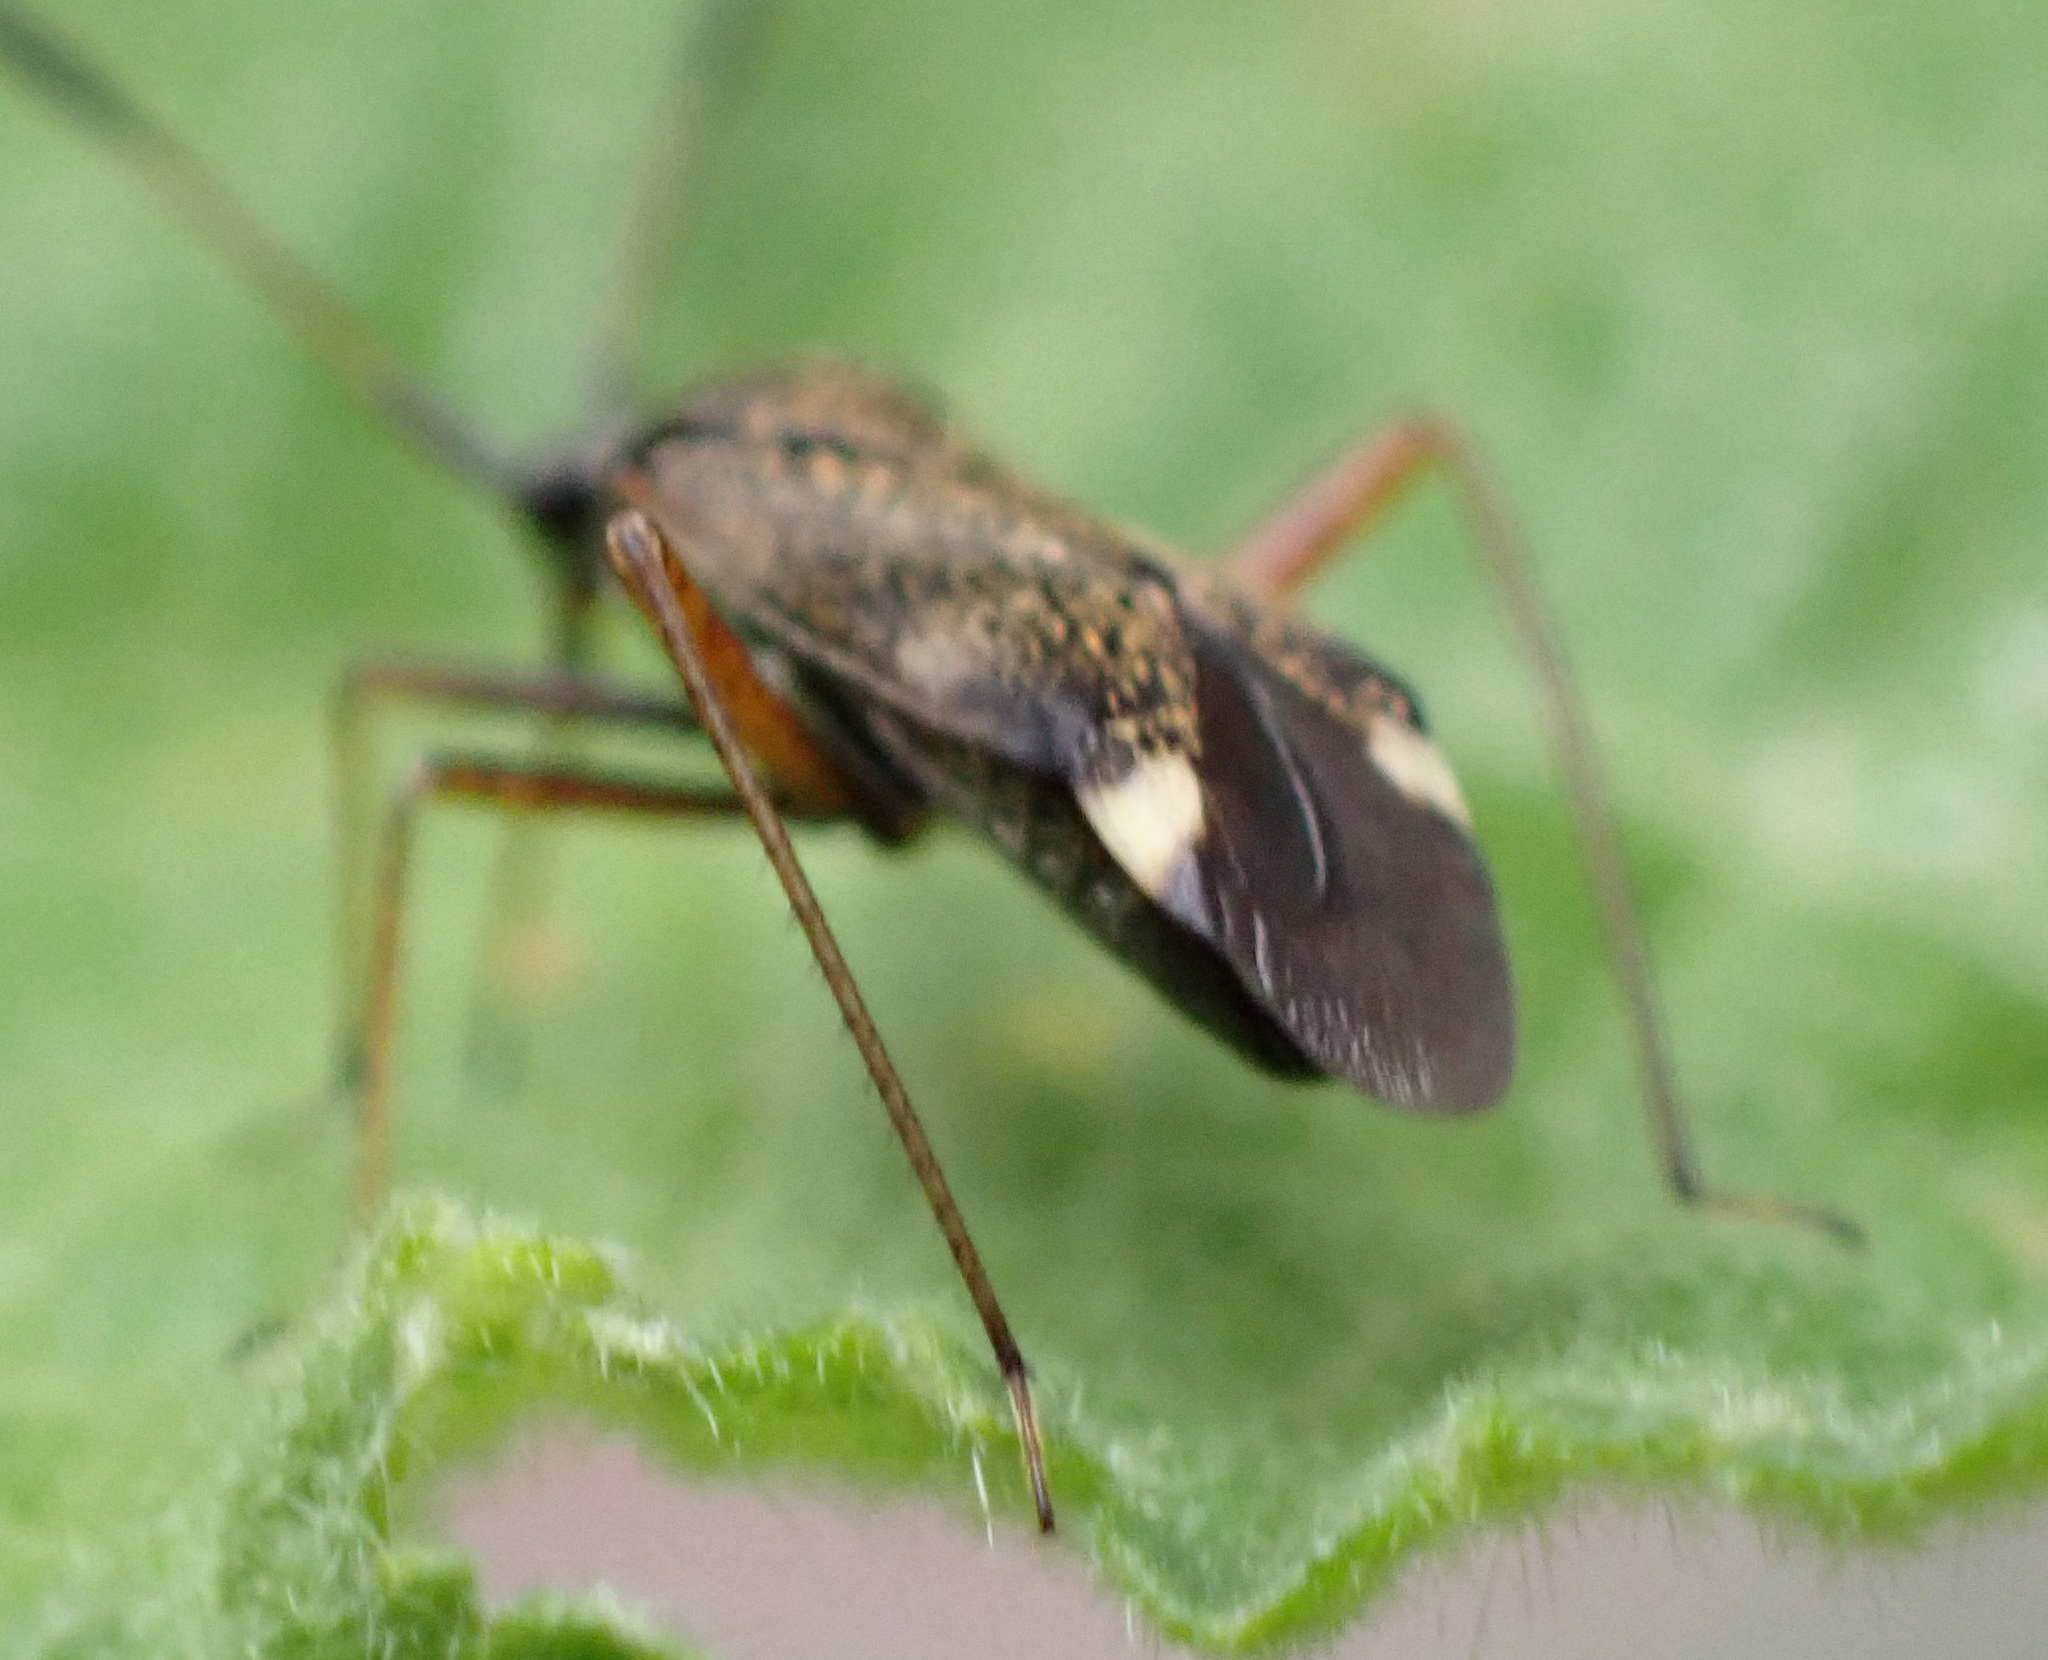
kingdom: Animalia
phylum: Arthropoda
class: Insecta
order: Hemiptera
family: Miridae
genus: Closterotomus
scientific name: Closterotomus biclavatus
